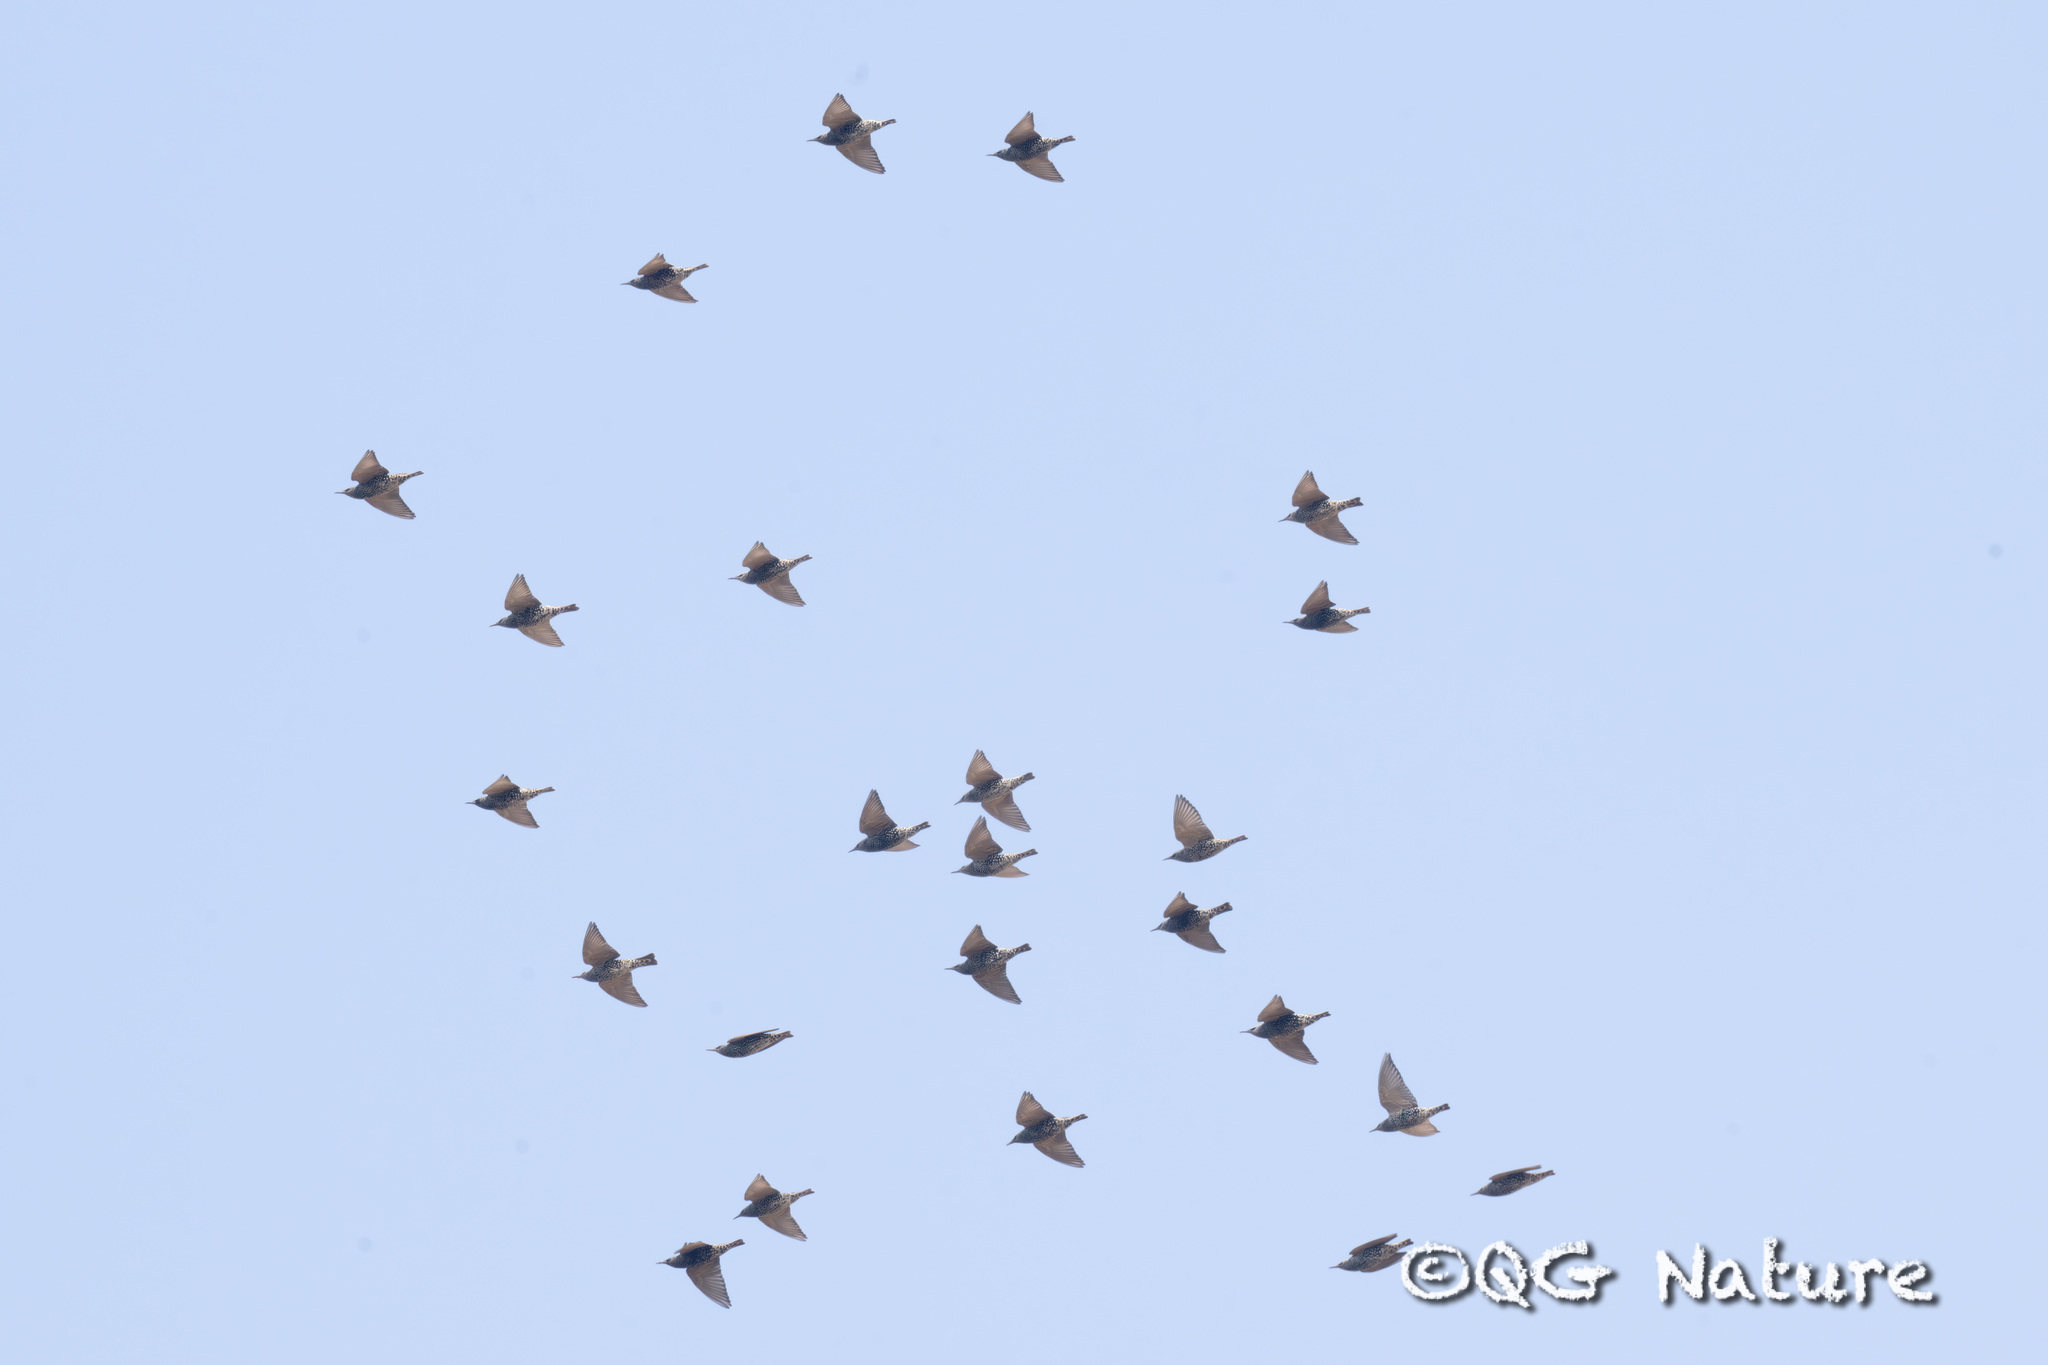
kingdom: Animalia
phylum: Chordata
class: Aves
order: Passeriformes
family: Sturnidae
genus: Sturnus
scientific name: Sturnus vulgaris
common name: Common starling
